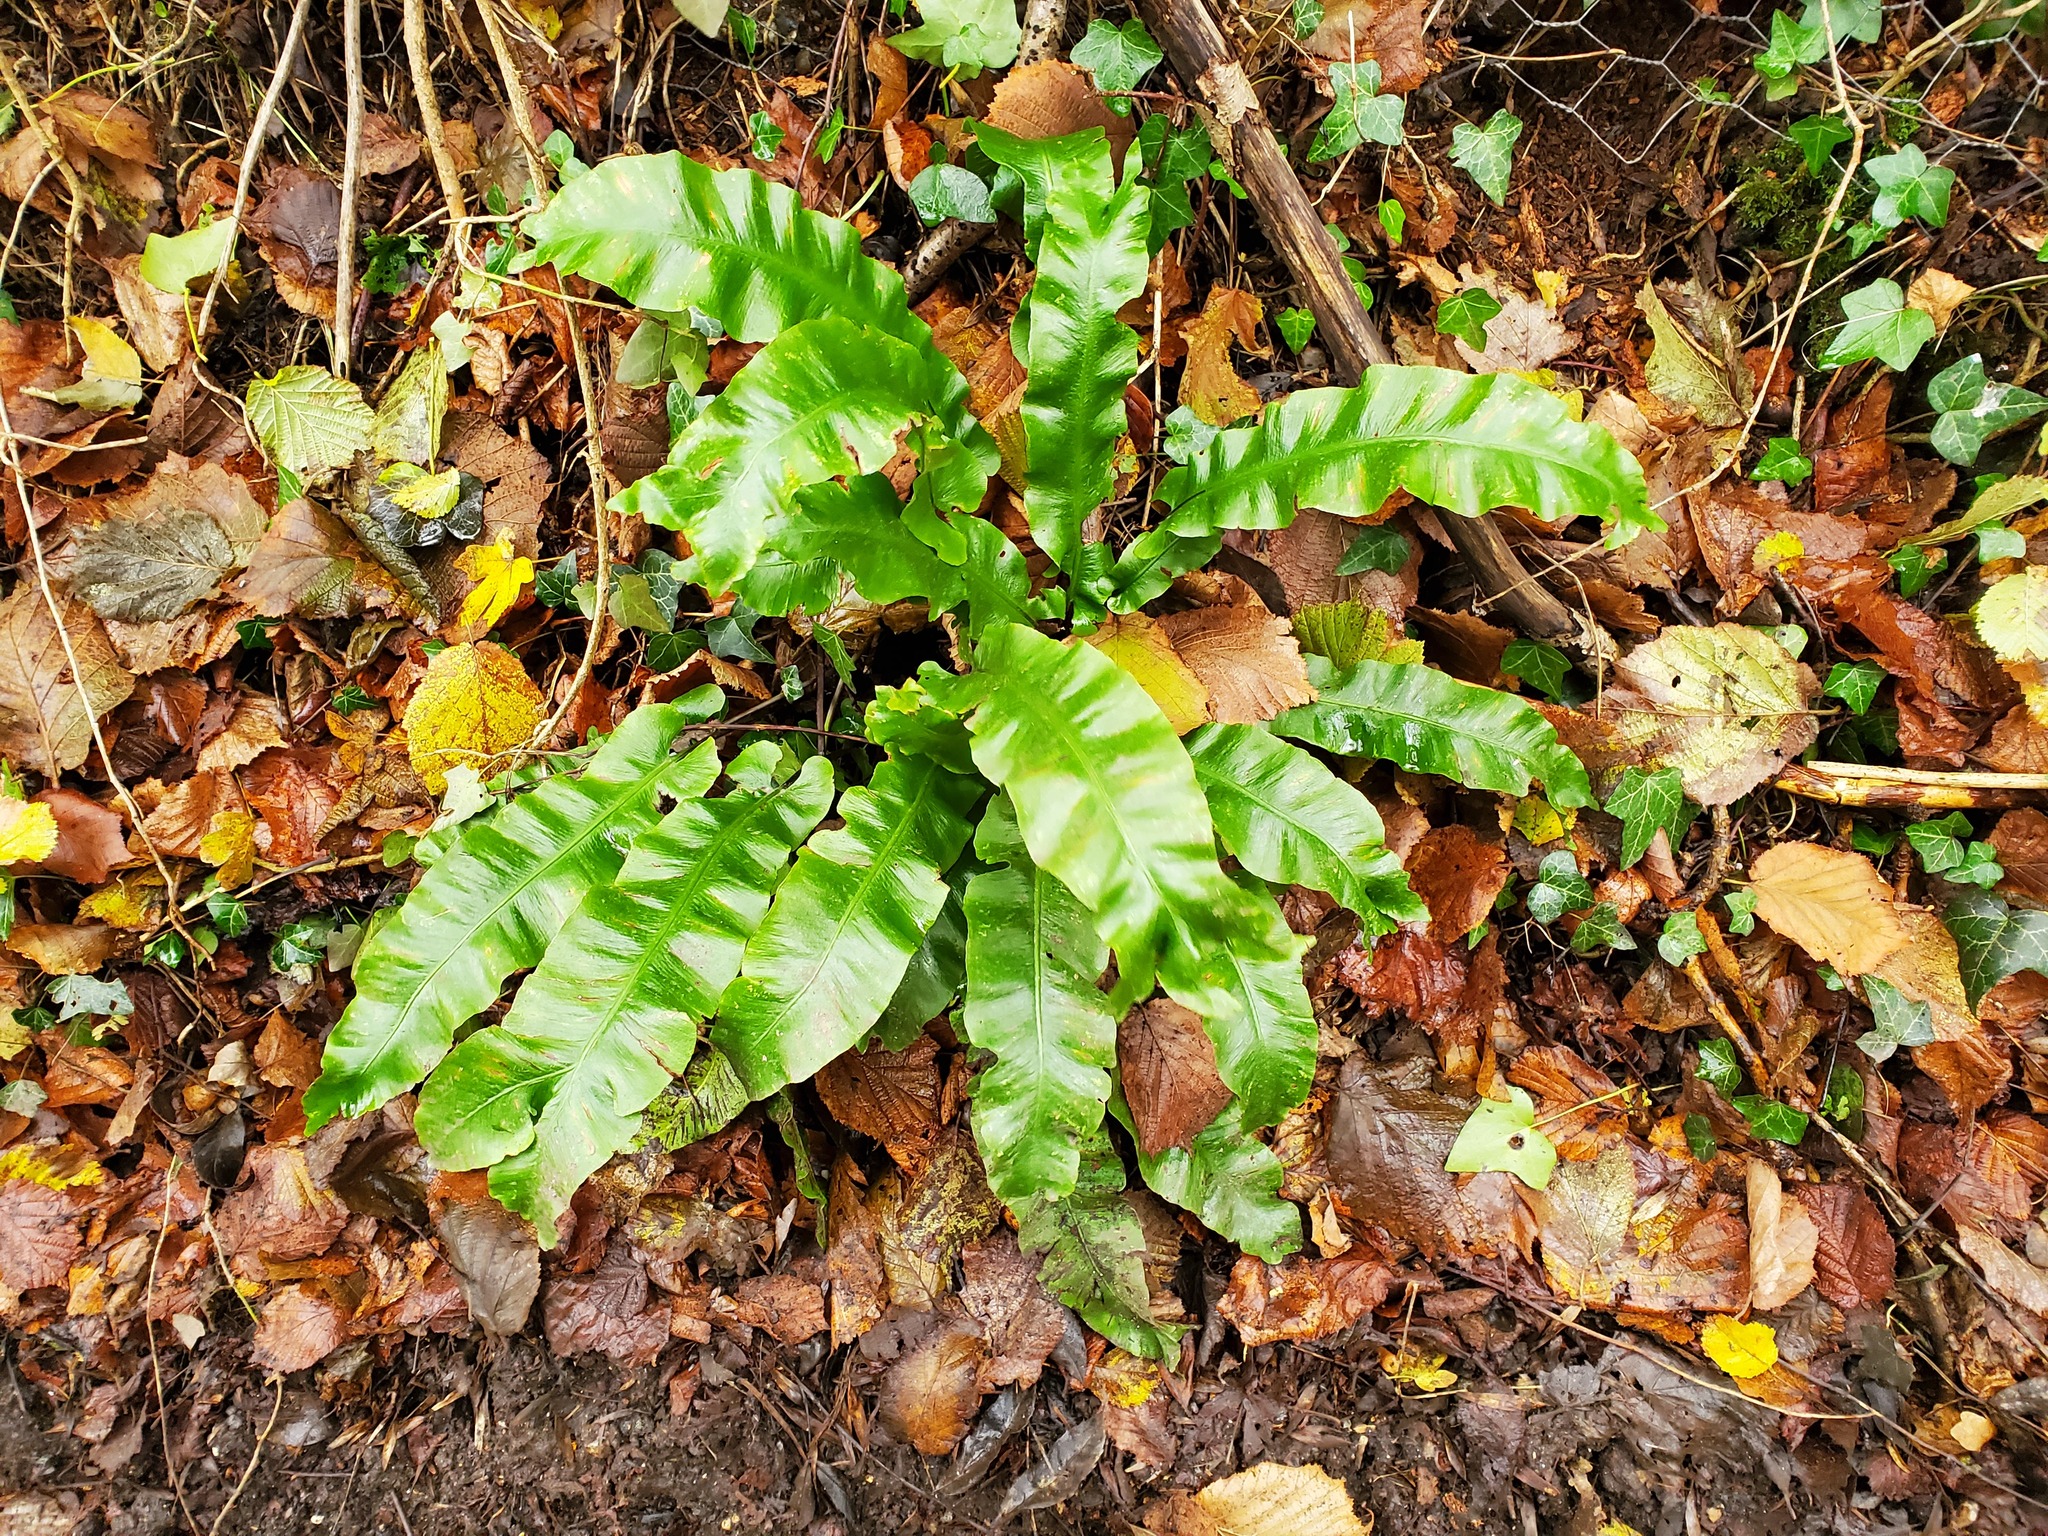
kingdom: Plantae
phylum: Tracheophyta
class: Polypodiopsida
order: Polypodiales
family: Aspleniaceae
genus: Asplenium
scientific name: Asplenium scolopendrium
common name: Hart's-tongue fern
